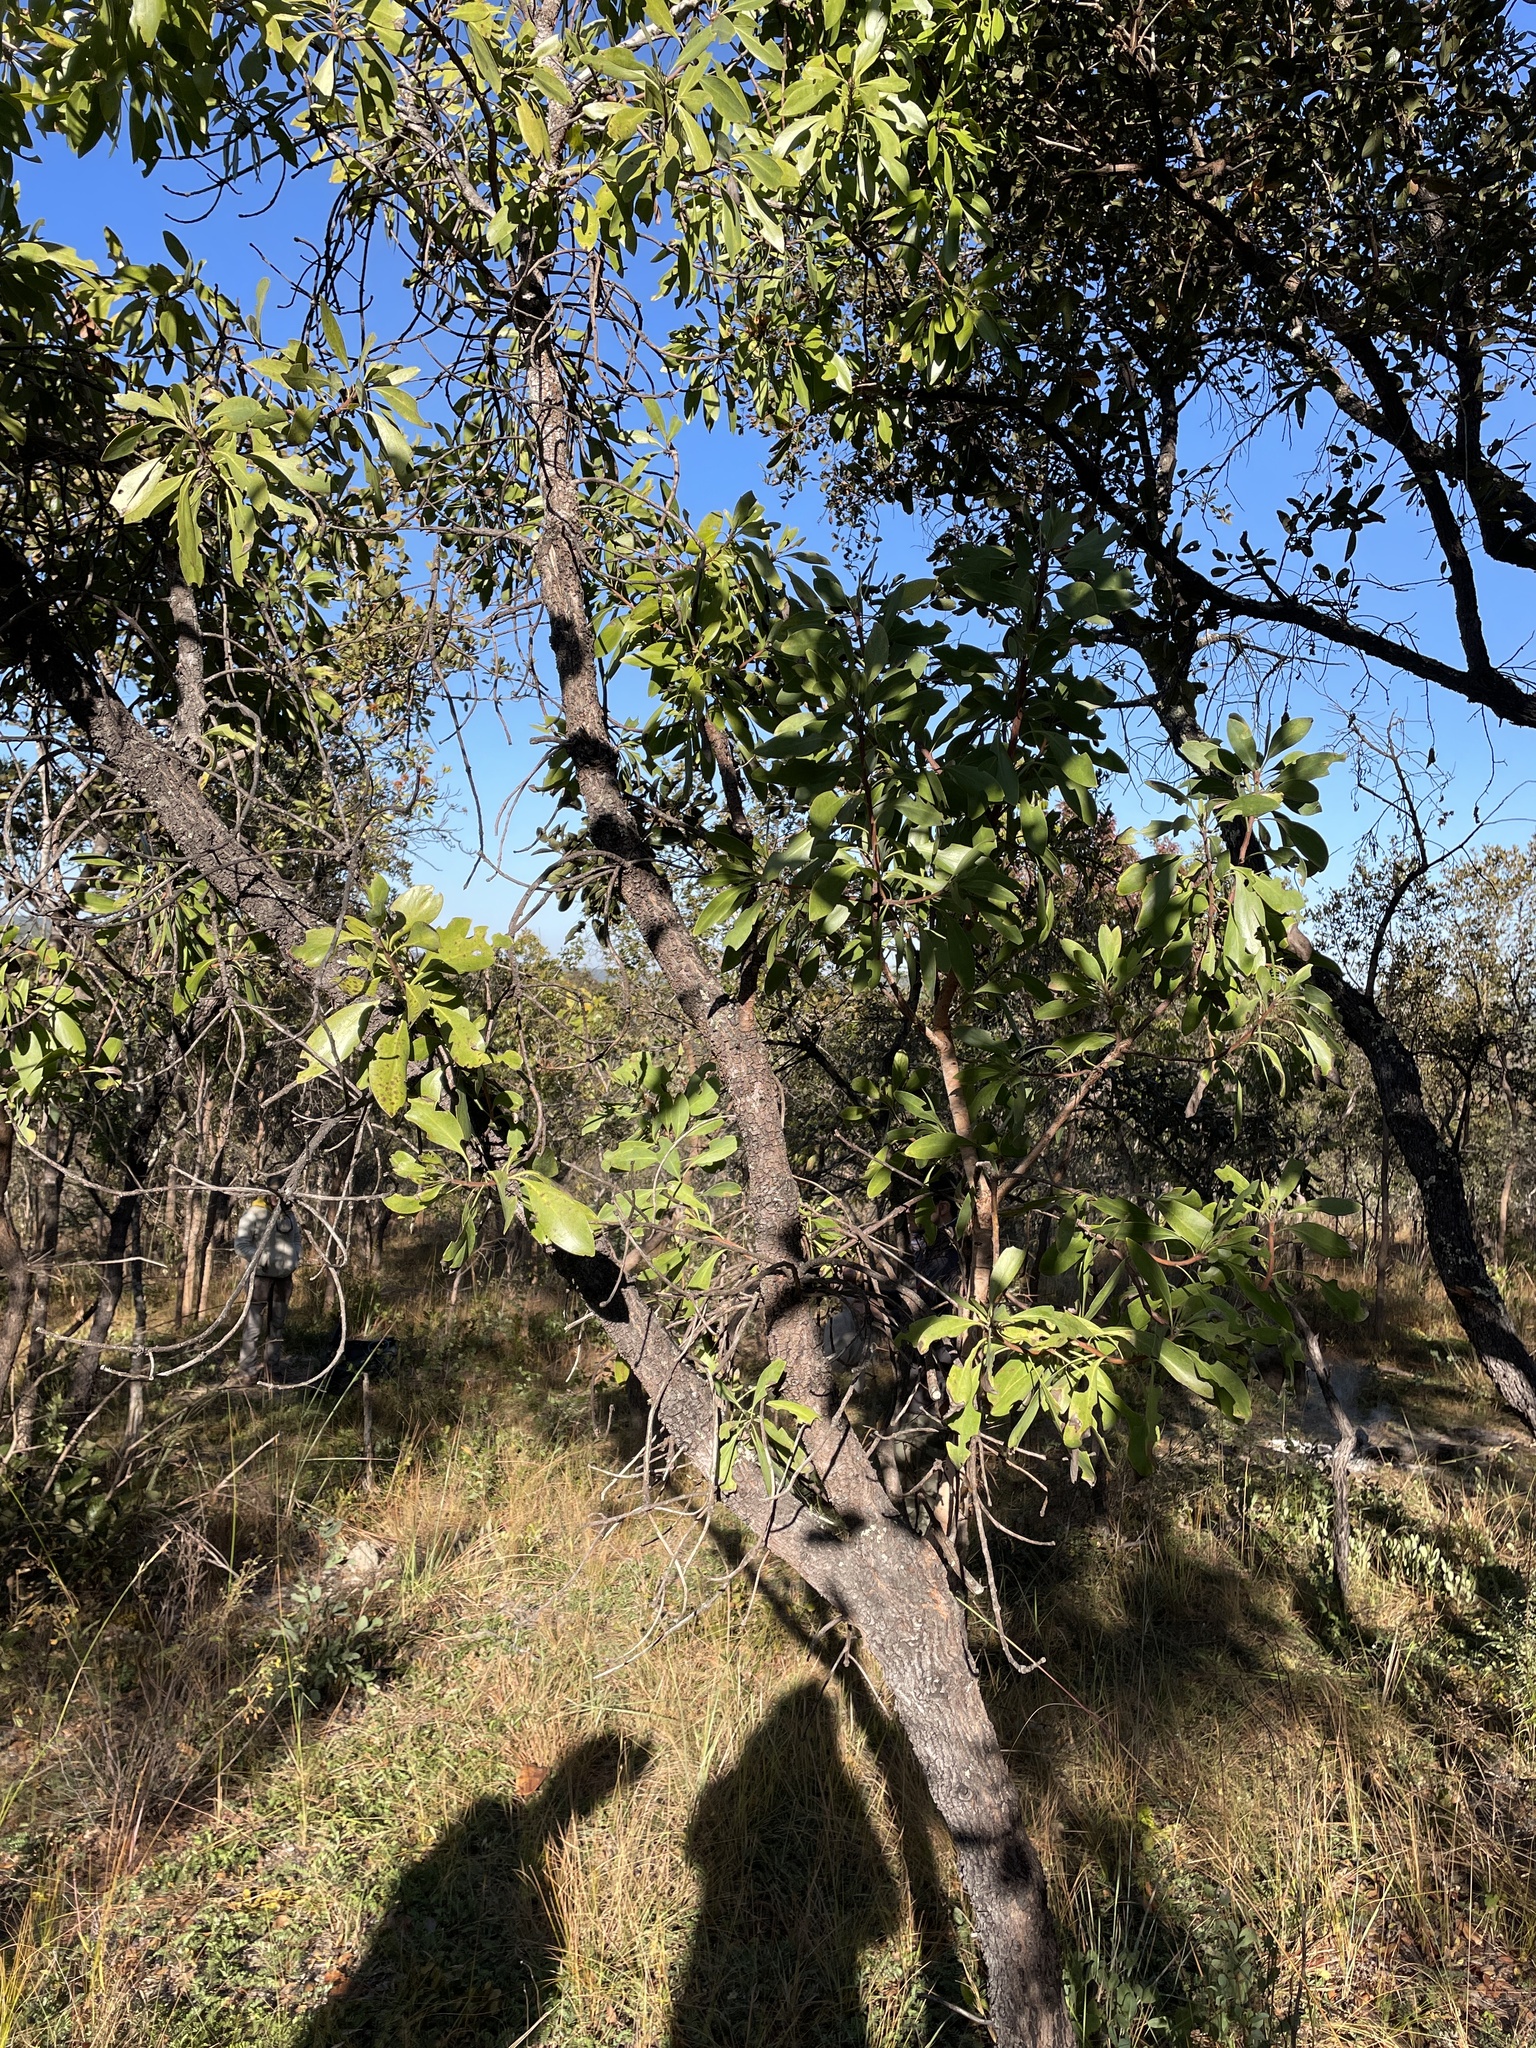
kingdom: Plantae
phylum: Tracheophyta
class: Magnoliopsida
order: Proteales
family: Proteaceae
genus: Protea
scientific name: Protea petiolaris
